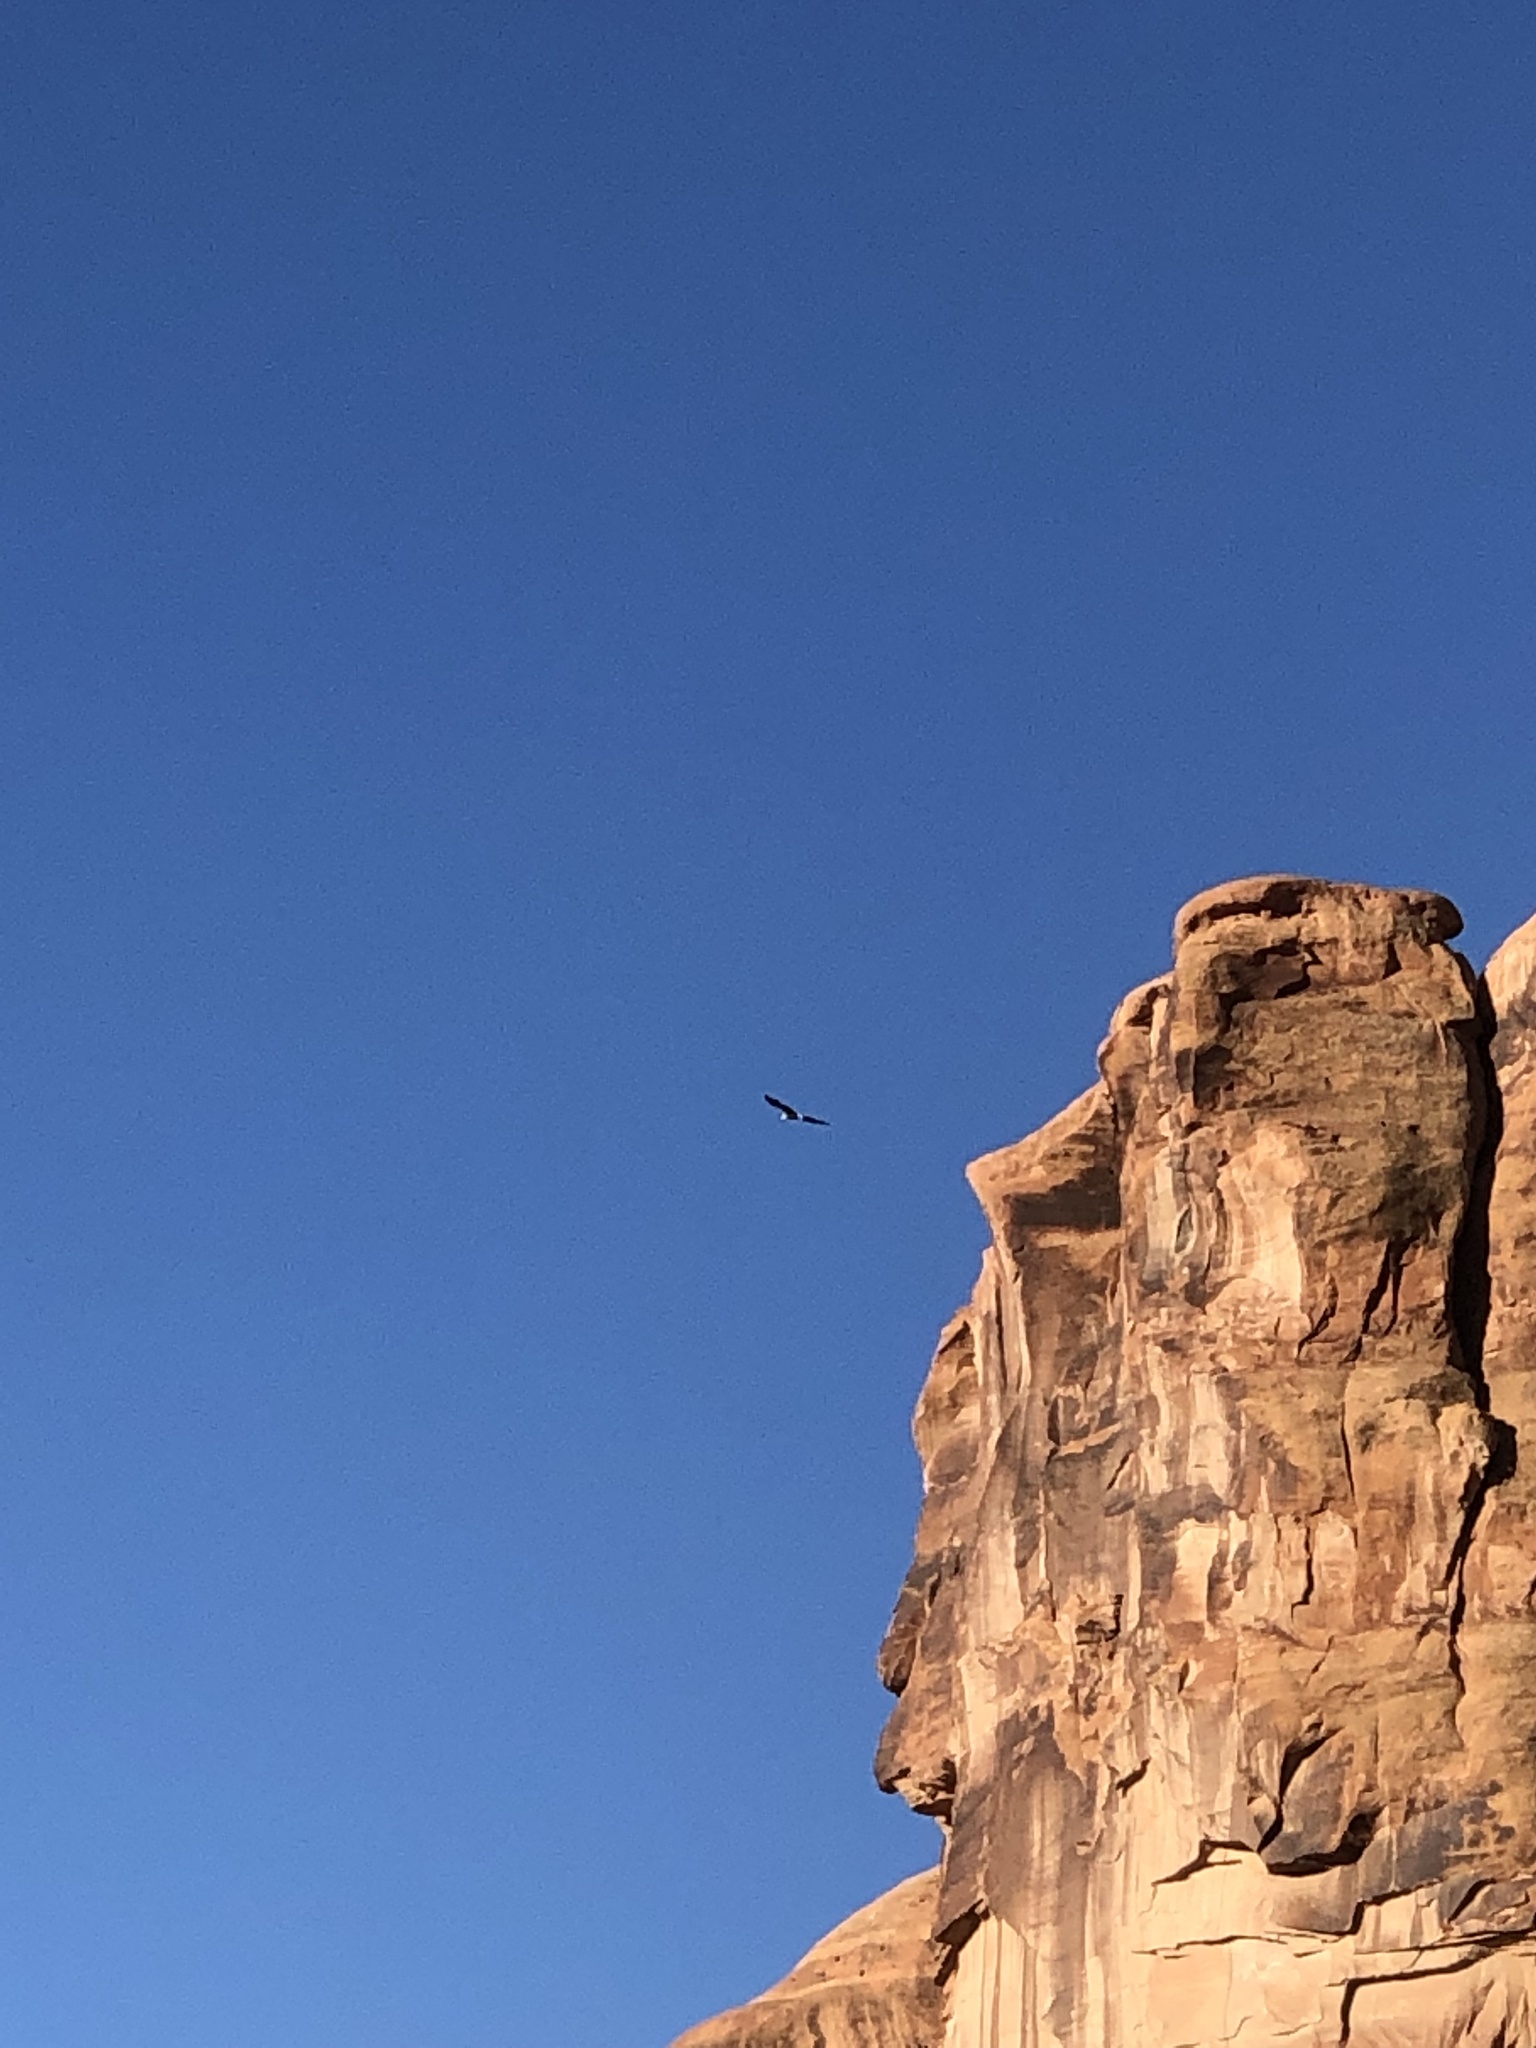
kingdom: Animalia
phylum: Chordata
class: Aves
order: Accipitriformes
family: Accipitridae
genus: Haliaeetus
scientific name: Haliaeetus leucocephalus
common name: Bald eagle
